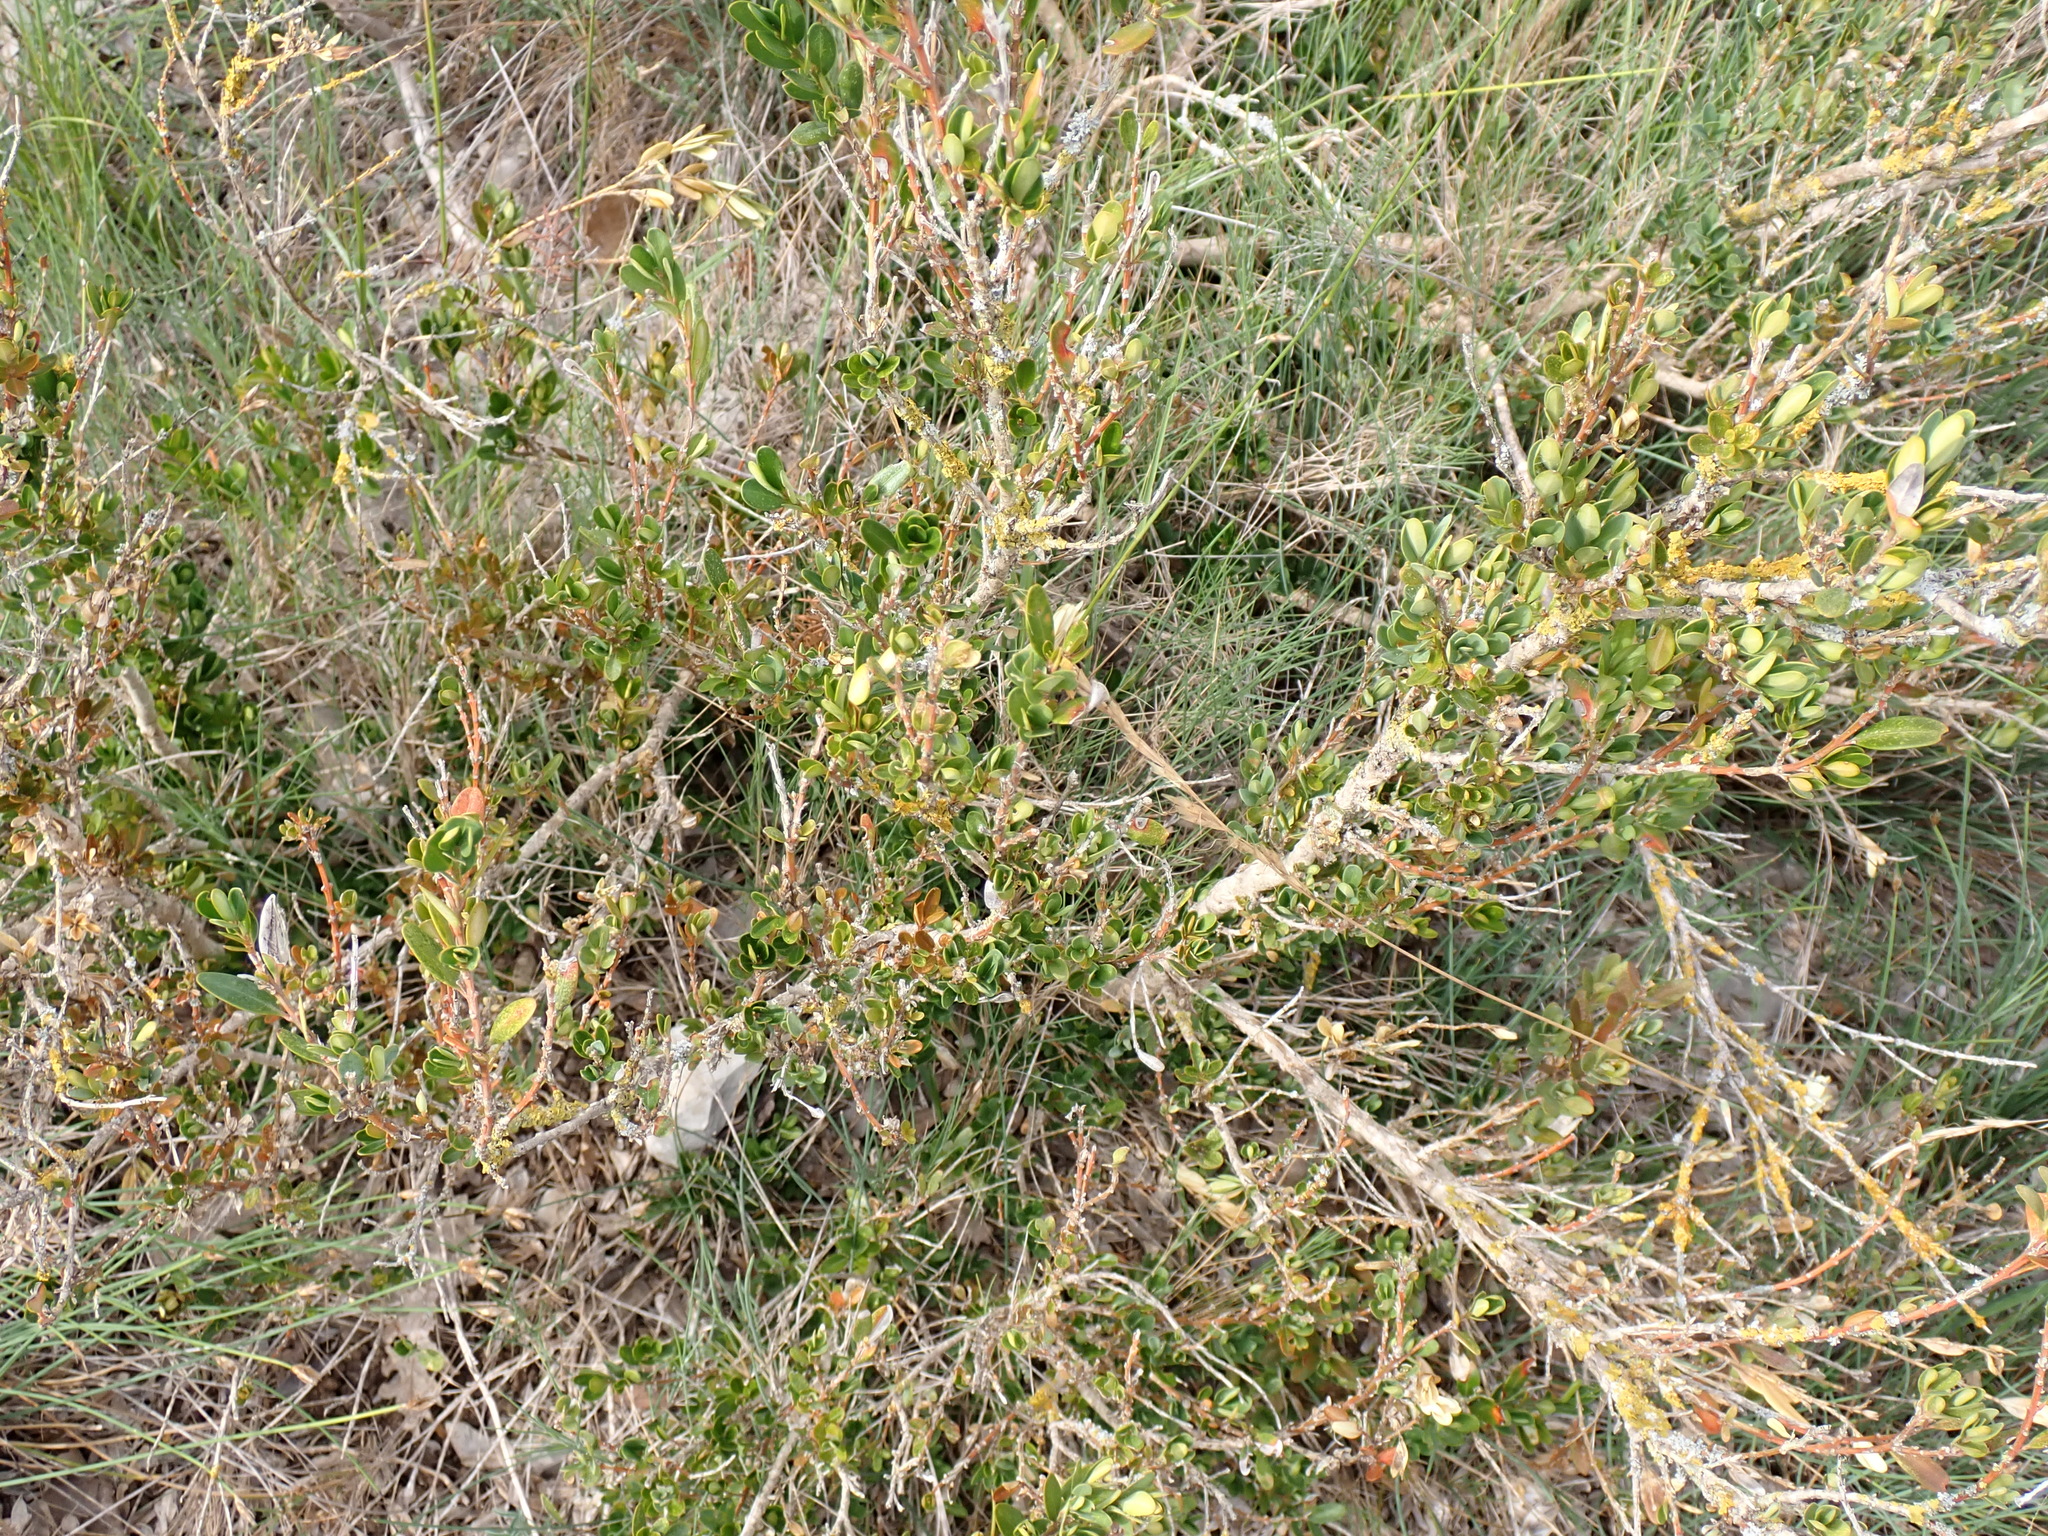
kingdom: Plantae
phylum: Tracheophyta
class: Magnoliopsida
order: Buxales
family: Buxaceae
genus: Buxus
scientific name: Buxus sempervirens
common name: Box
